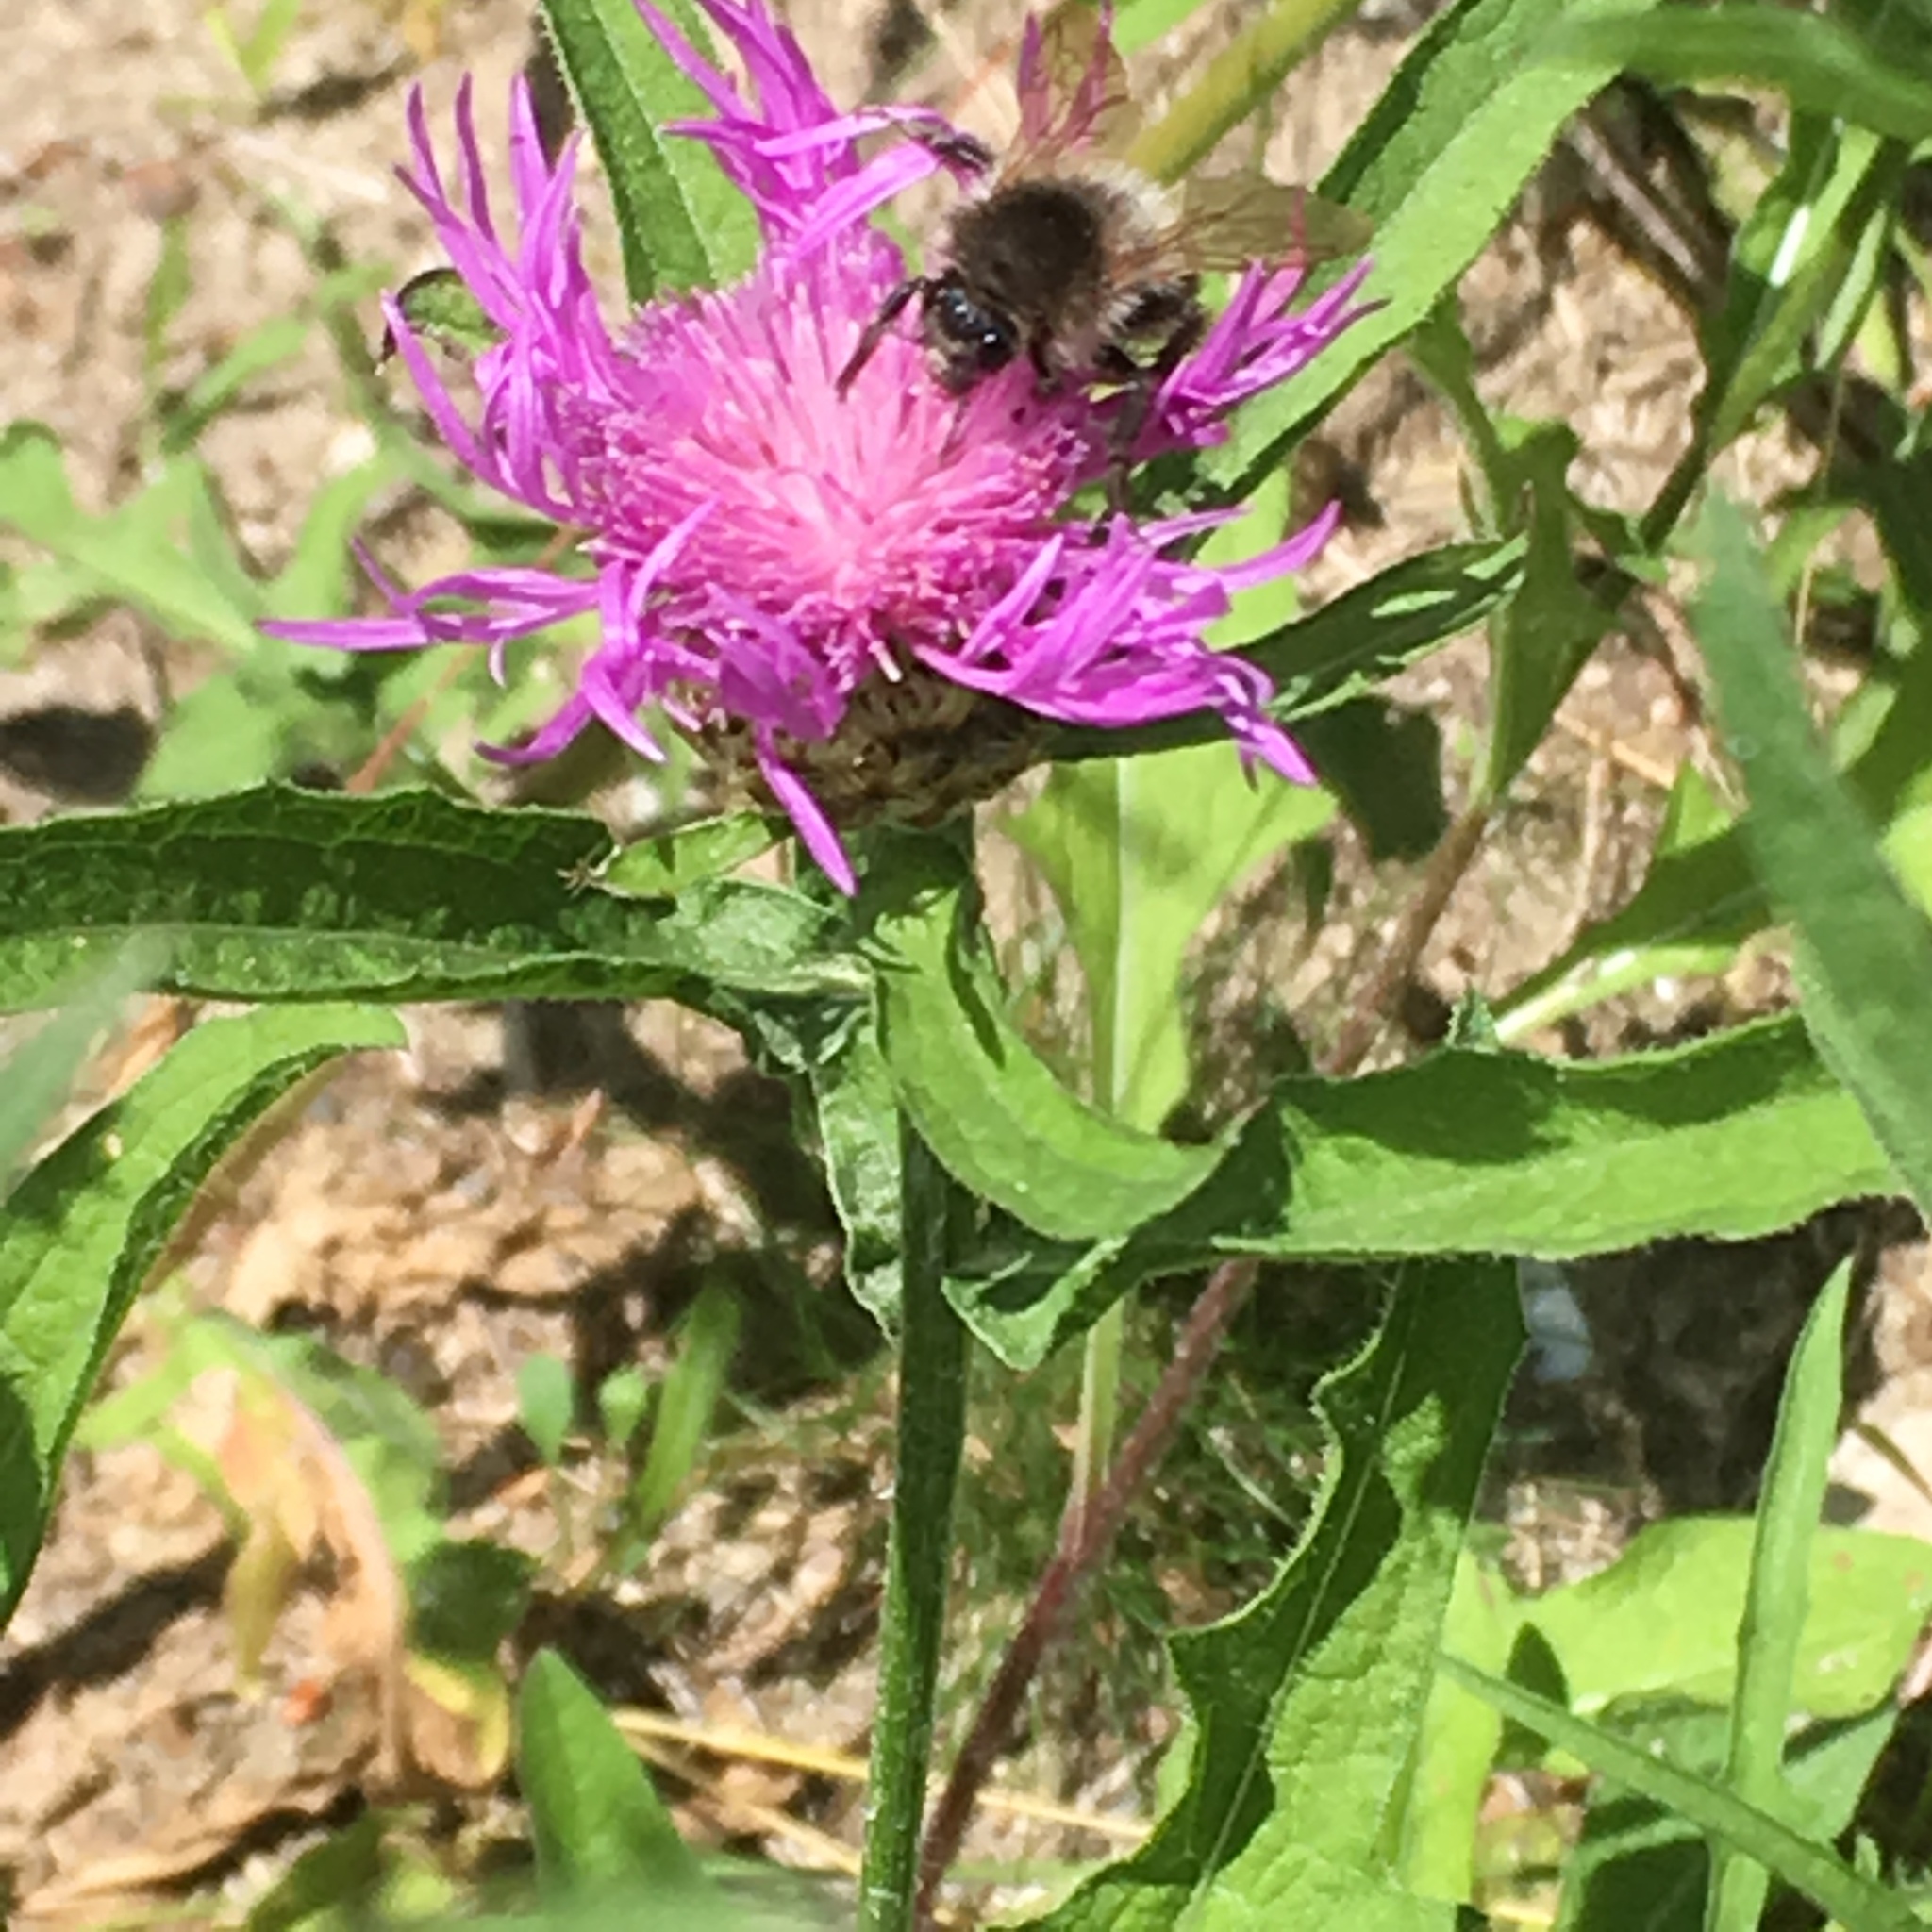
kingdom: Animalia
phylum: Arthropoda
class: Insecta
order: Hymenoptera
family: Apidae
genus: Apis
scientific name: Apis mellifera
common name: Honey bee
